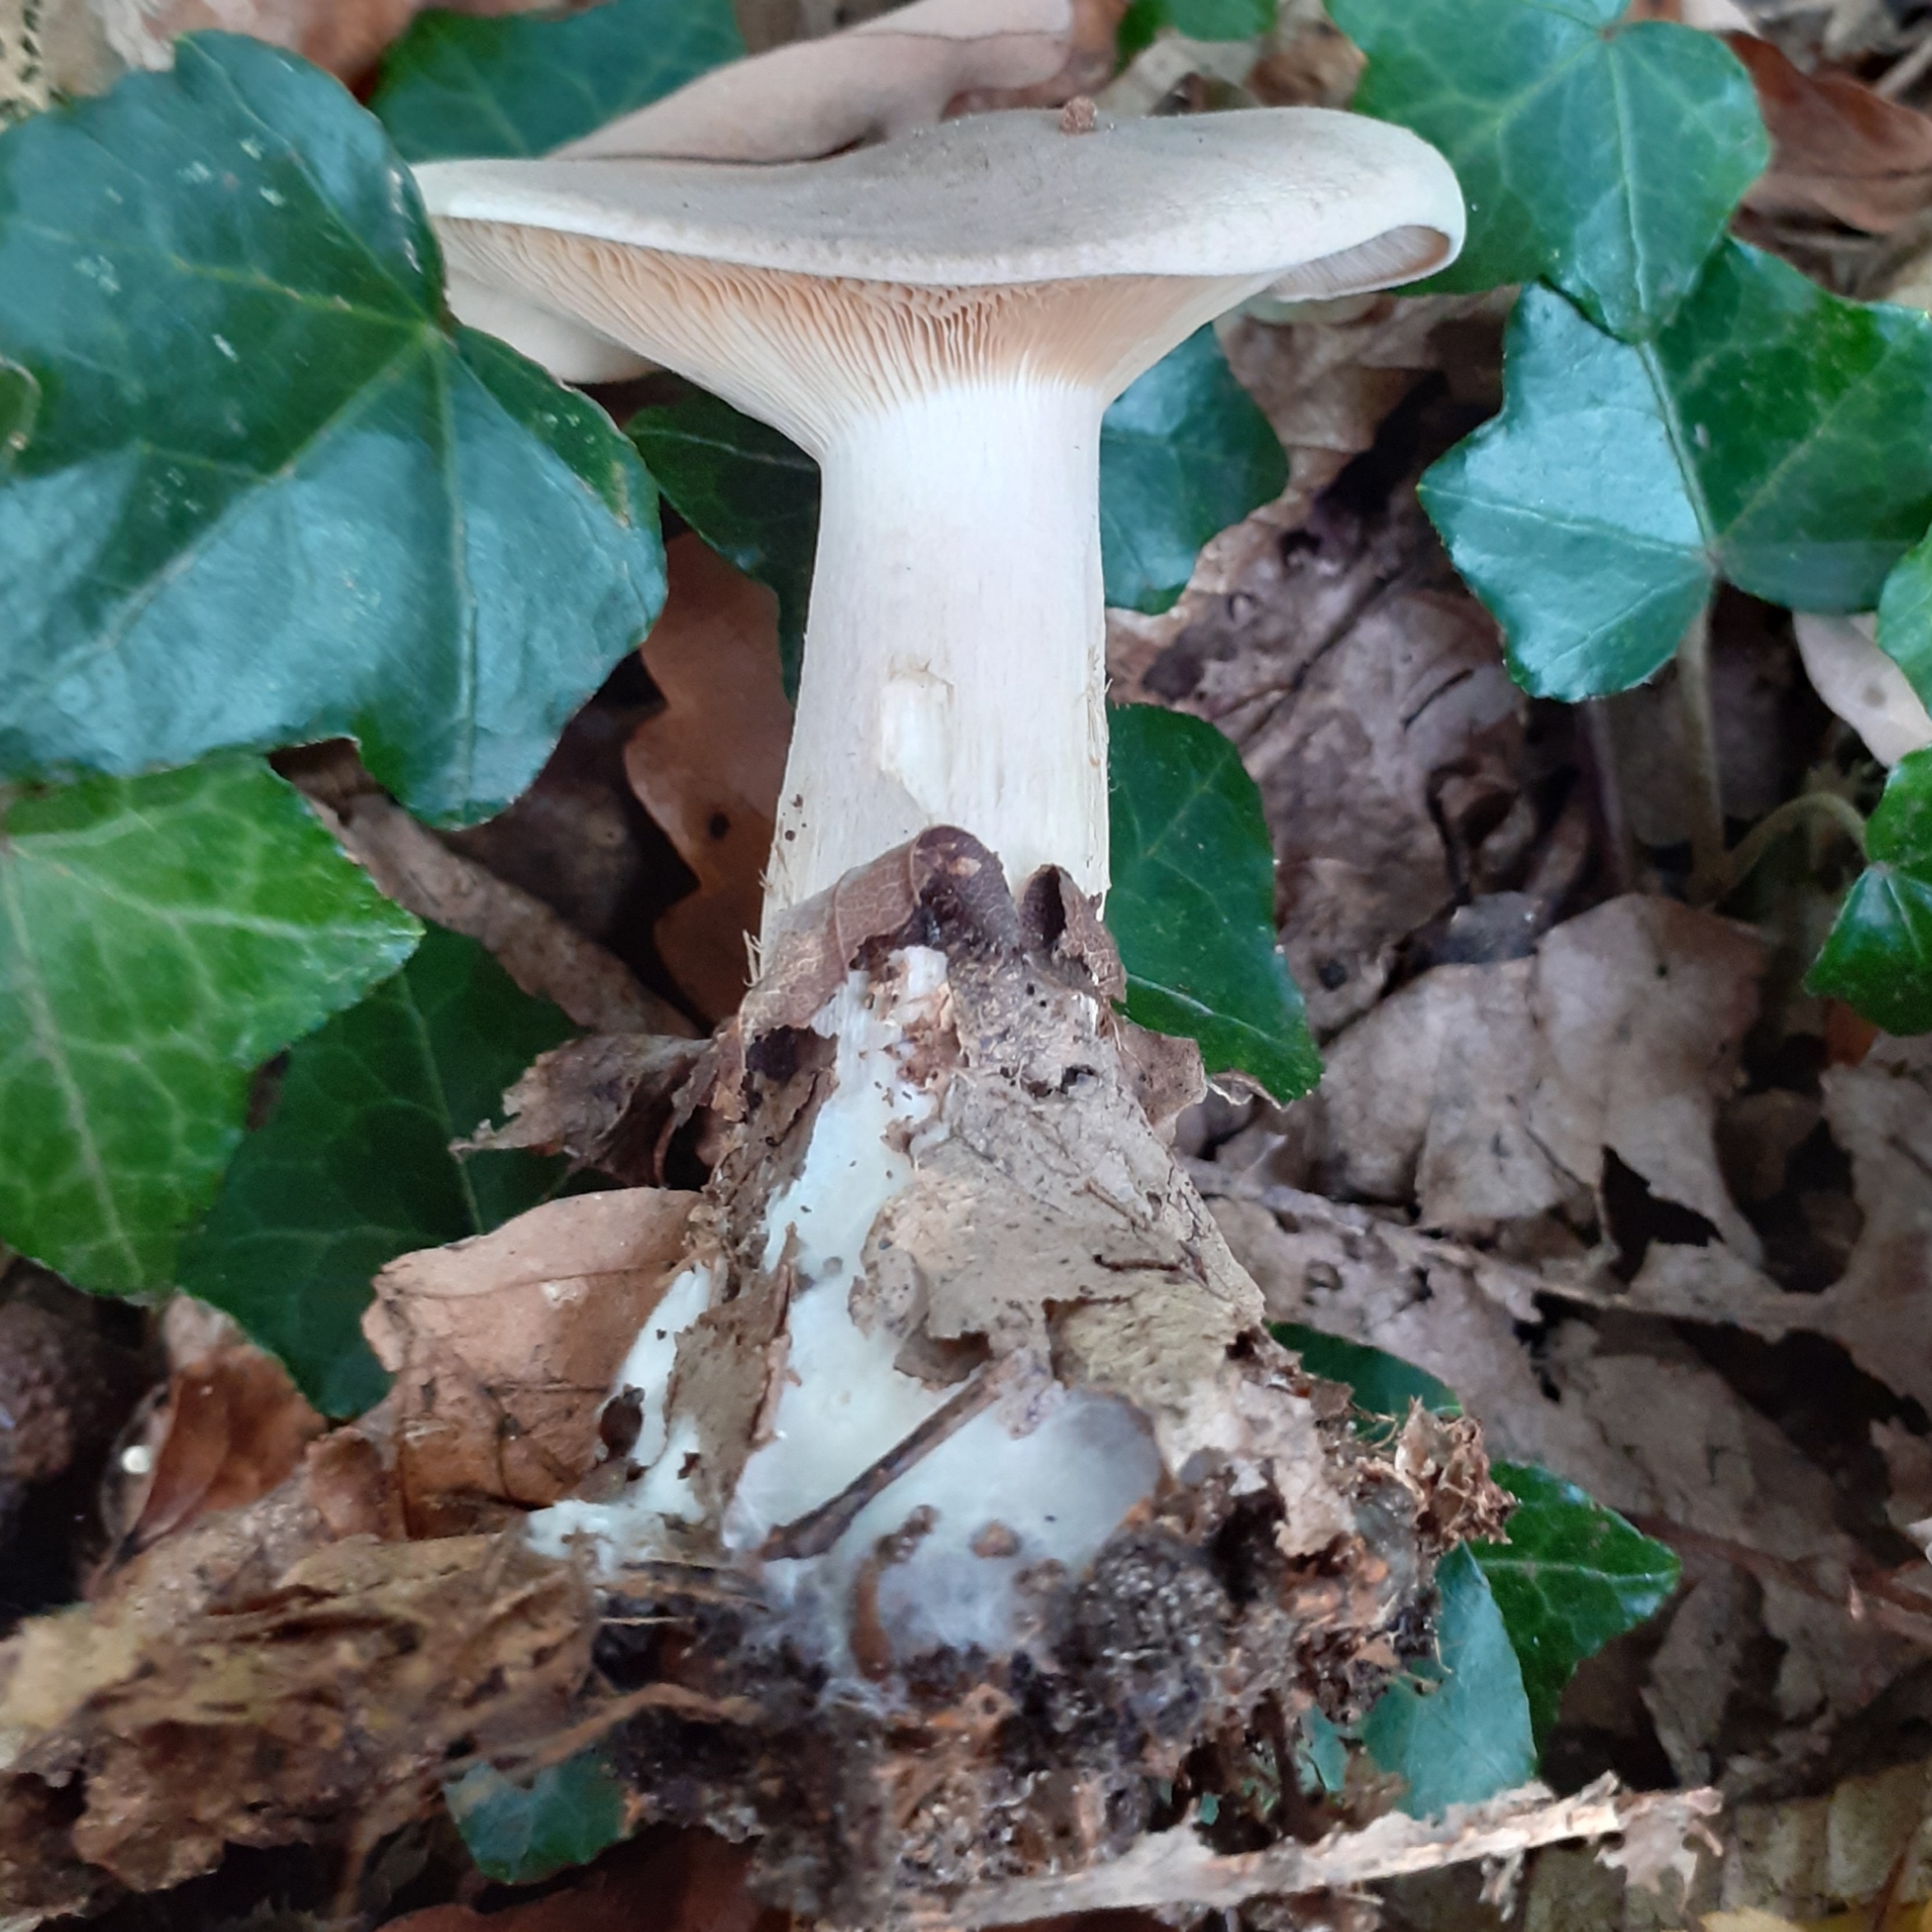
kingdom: Fungi
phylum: Basidiomycota
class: Agaricomycetes
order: Agaricales
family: Tricholomataceae
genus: Clitocybe
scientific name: Clitocybe nebularis
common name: Clouded agaric
